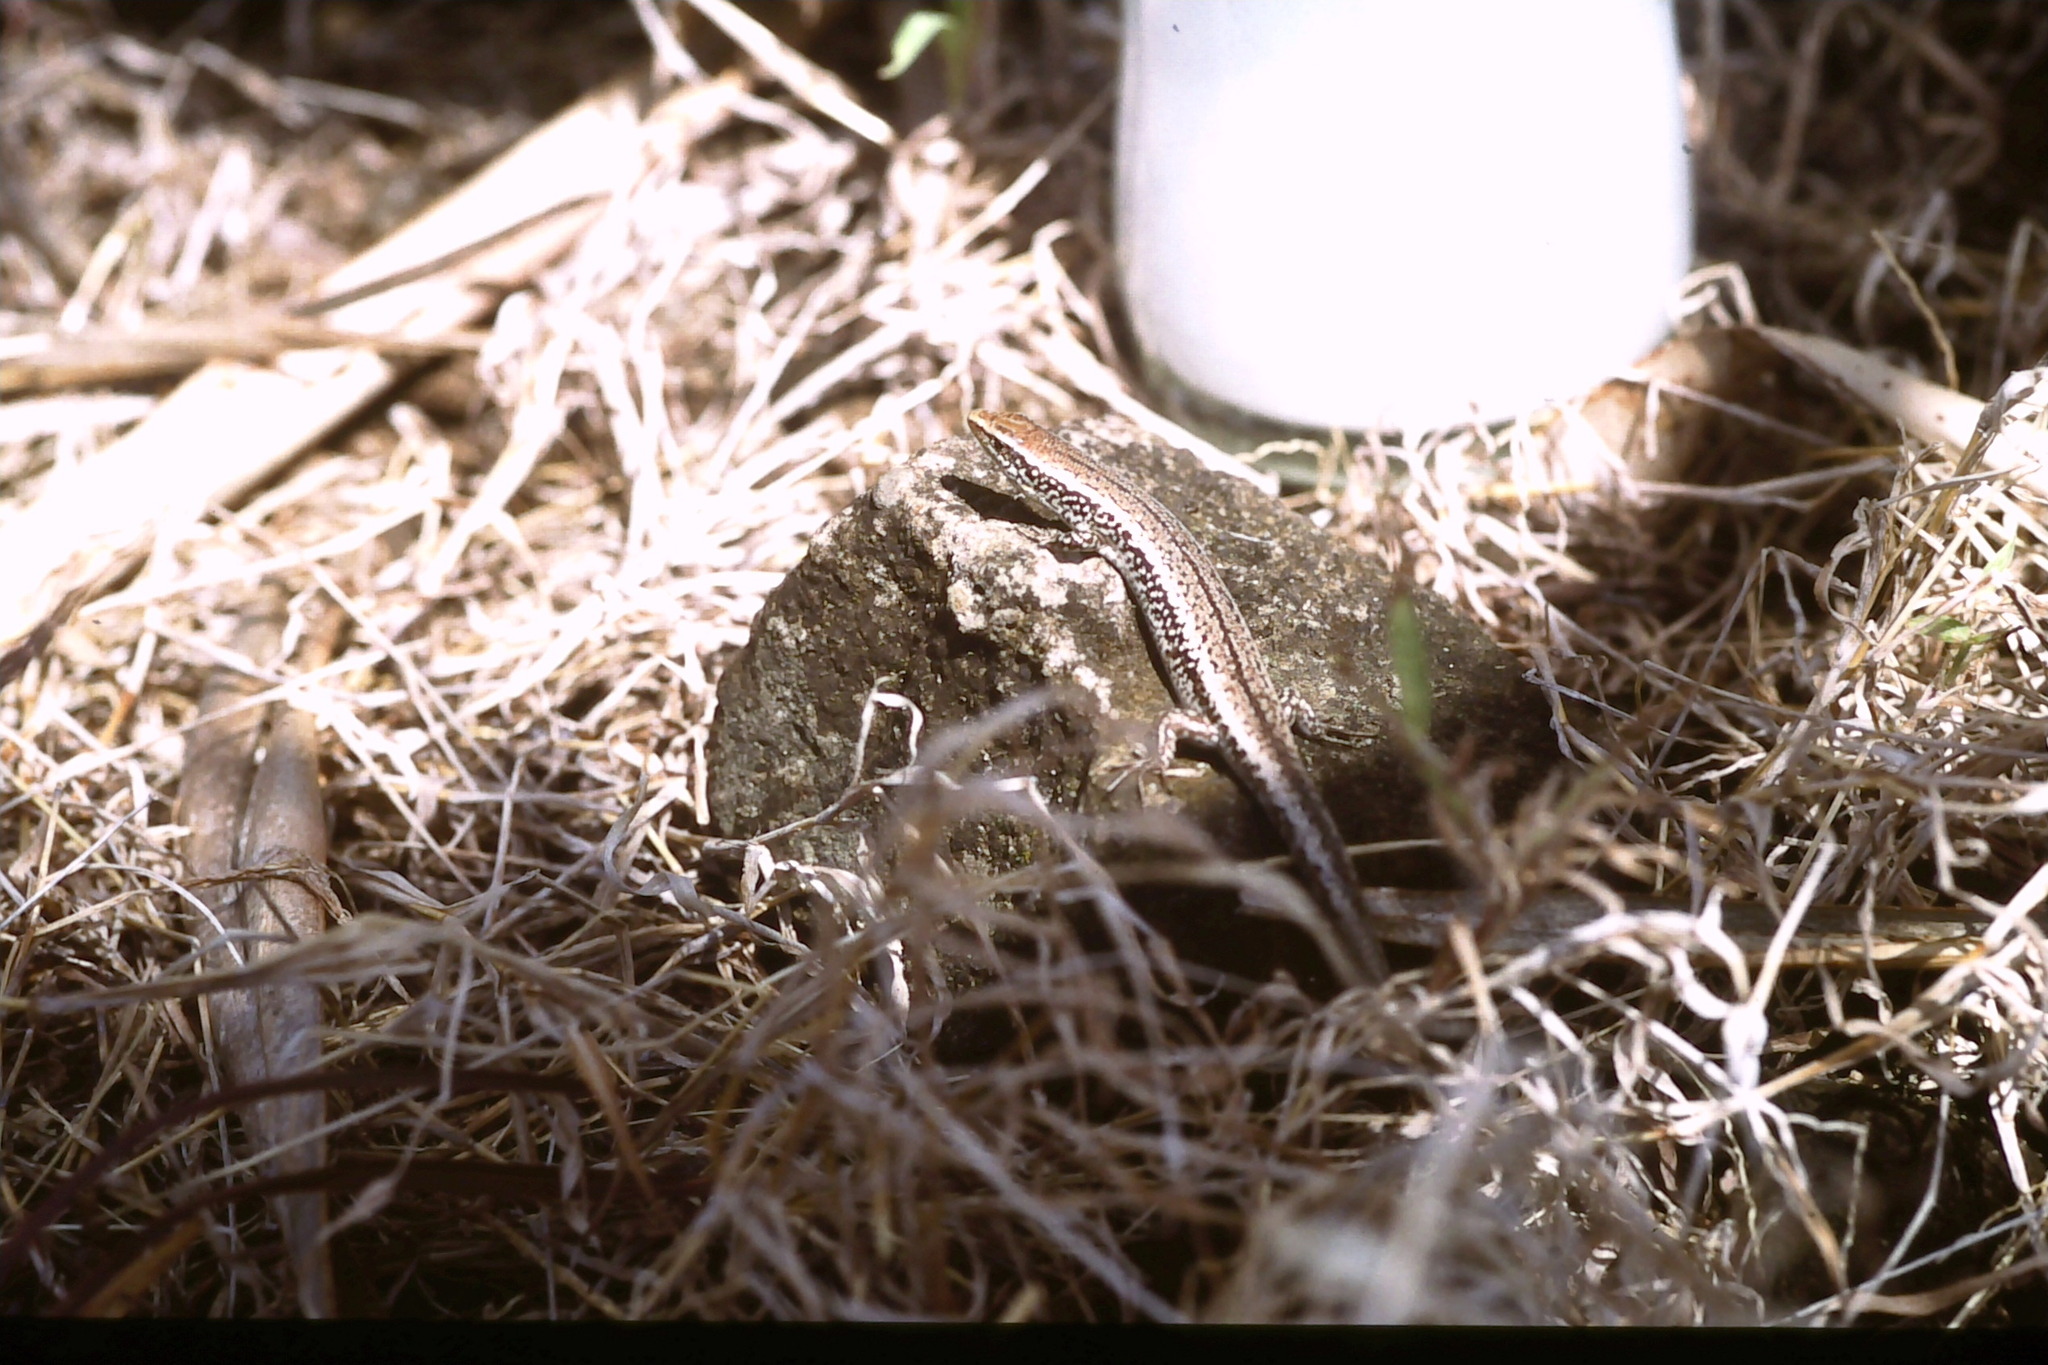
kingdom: Animalia
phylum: Chordata
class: Squamata
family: Scincidae
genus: Gongylomorphus
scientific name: Gongylomorphus bojerii
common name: Bojer's skink
